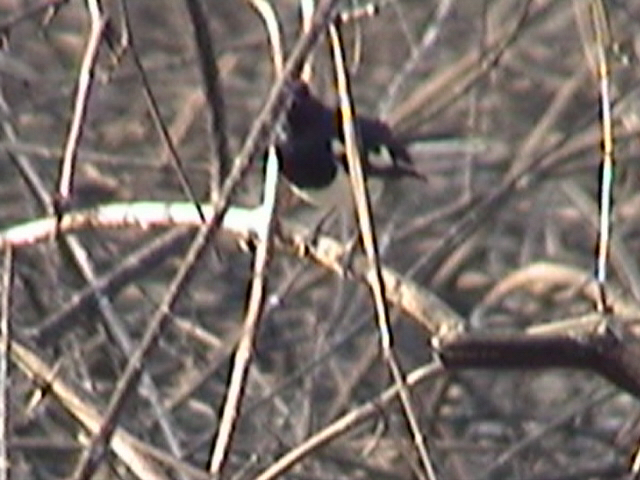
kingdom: Animalia
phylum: Chordata
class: Aves
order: Passeriformes
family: Muscicapidae
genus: Copsychus
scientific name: Copsychus saularis
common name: Oriental magpie-robin
